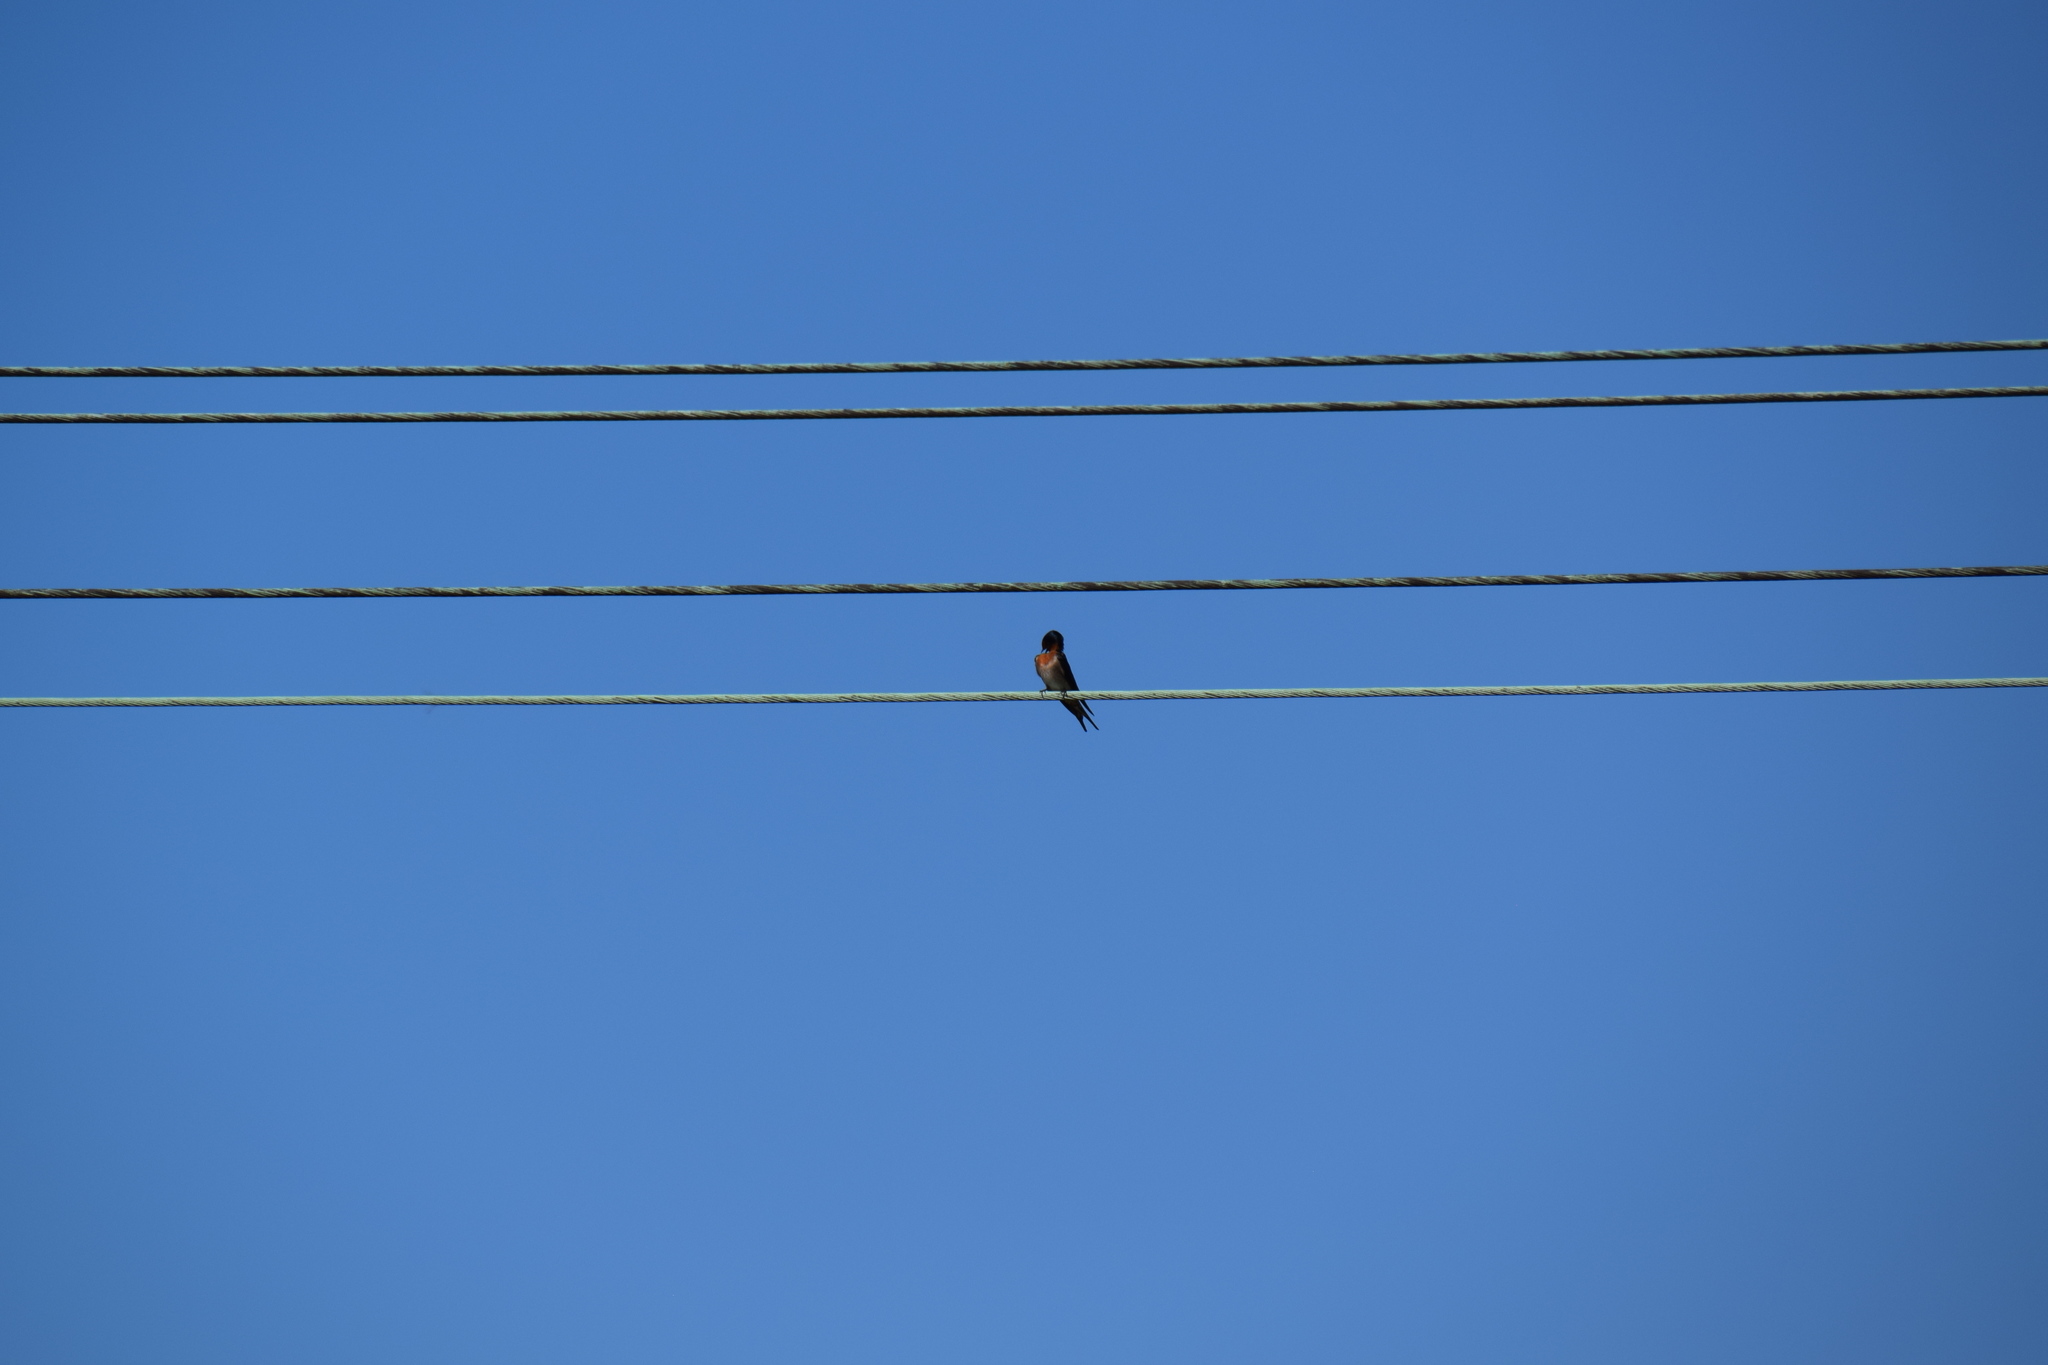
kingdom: Animalia
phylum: Chordata
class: Aves
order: Passeriformes
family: Hirundinidae
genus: Hirundo
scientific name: Hirundo neoxena
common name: Welcome swallow
